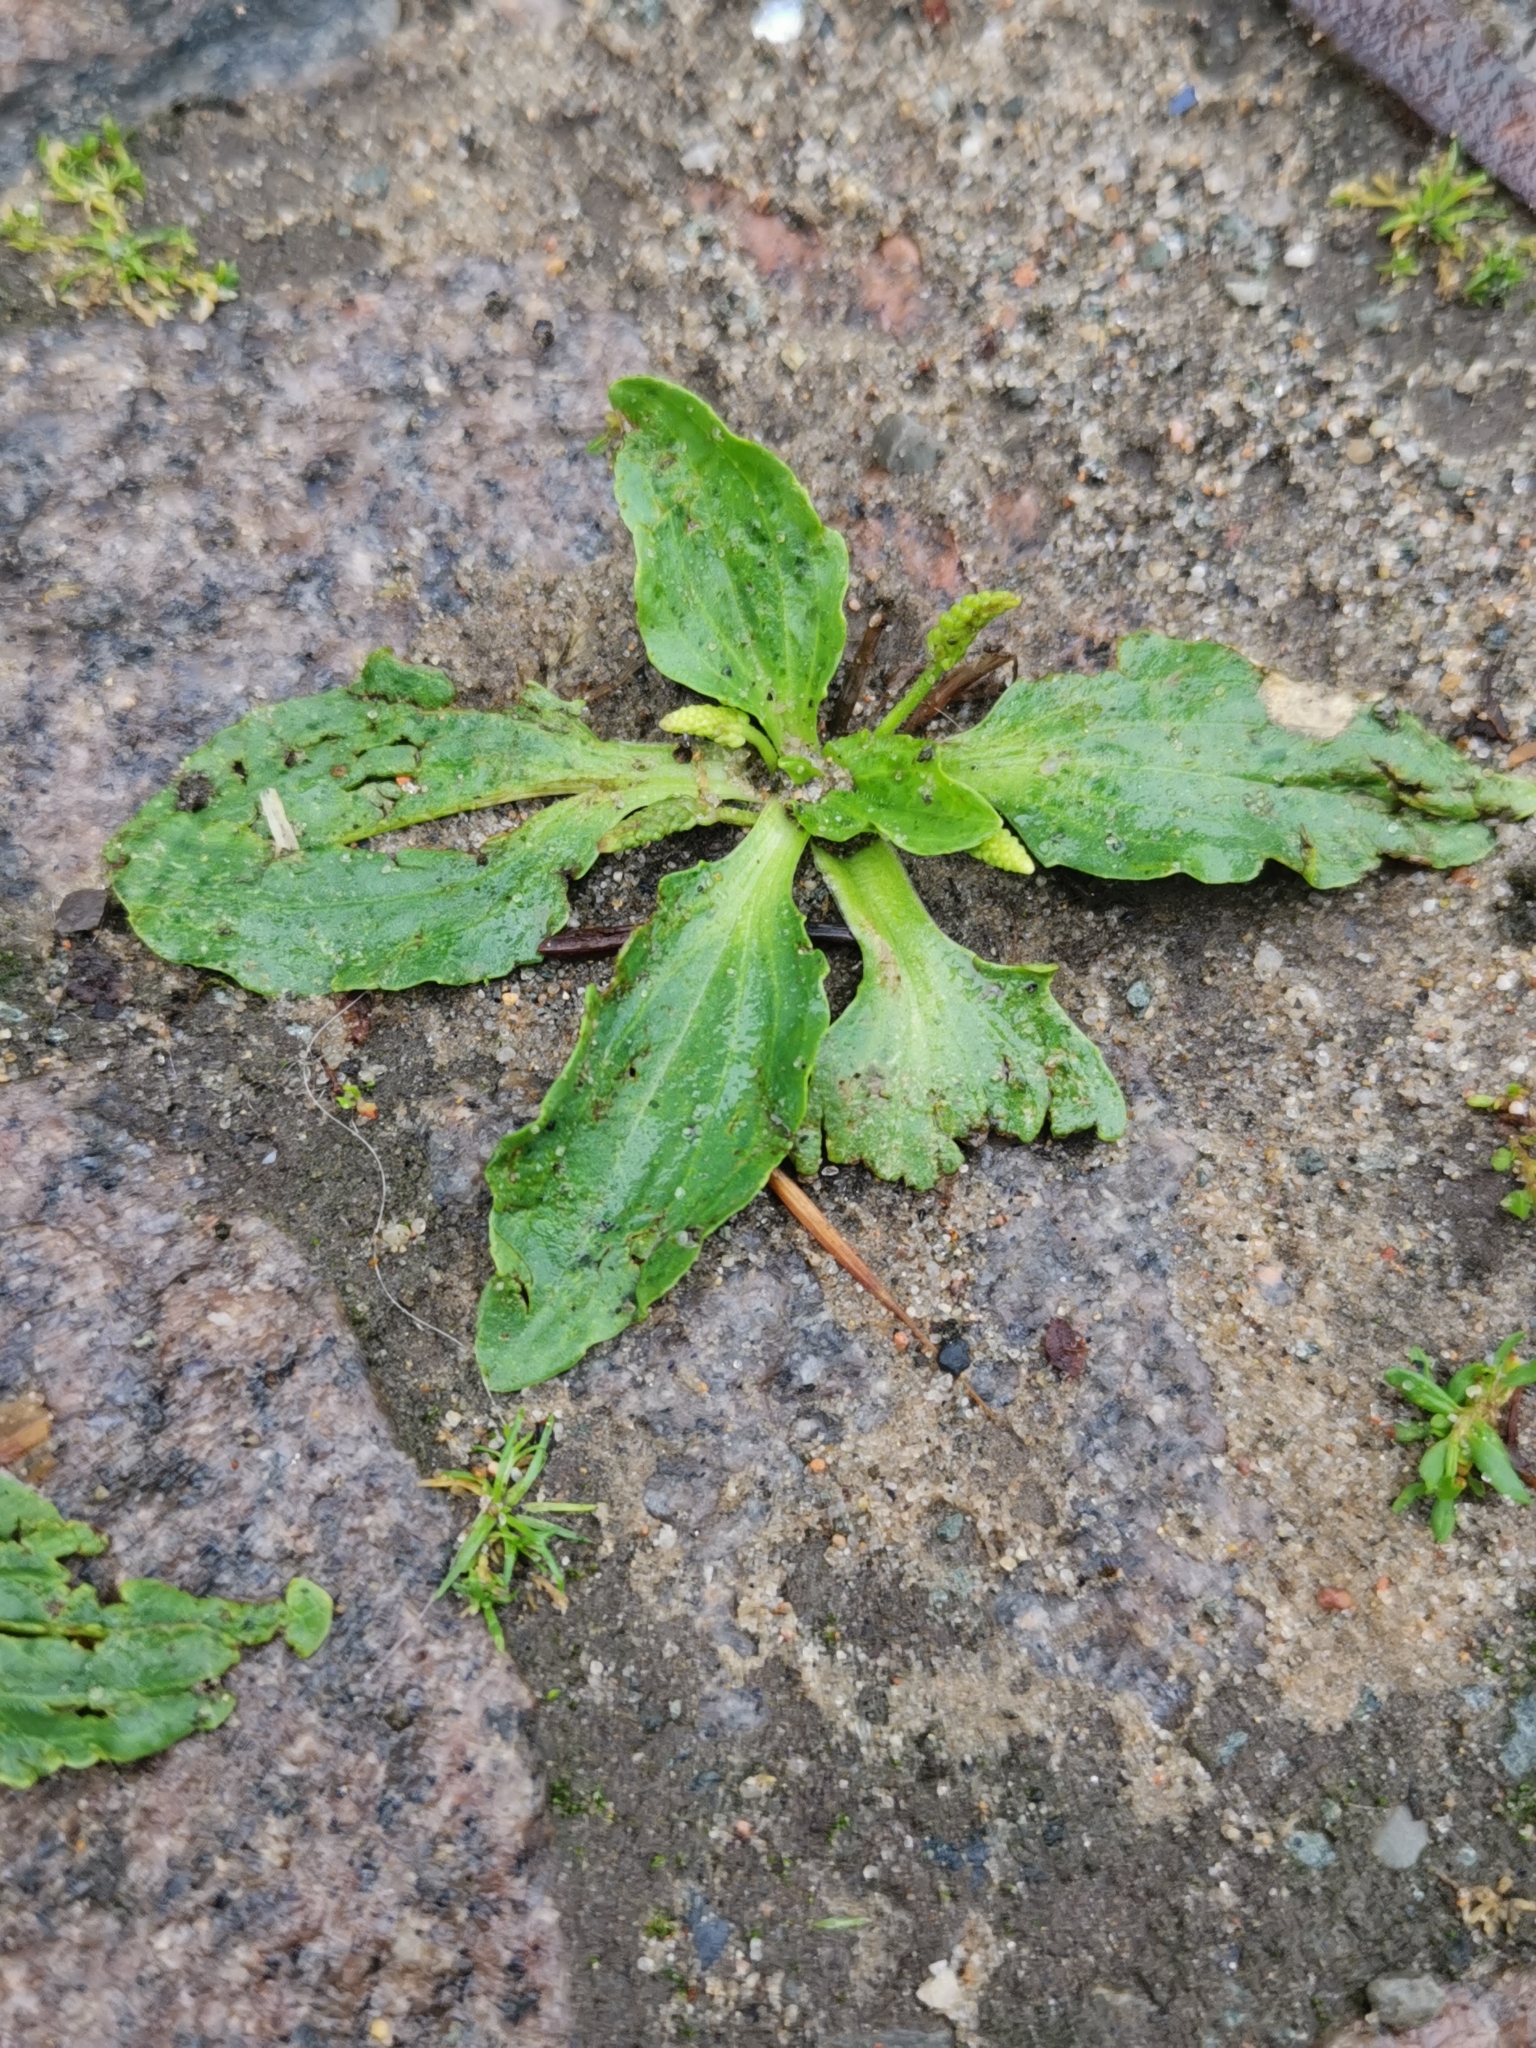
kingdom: Plantae
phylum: Tracheophyta
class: Magnoliopsida
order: Lamiales
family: Plantaginaceae
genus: Plantago
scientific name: Plantago major
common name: Common plantain
